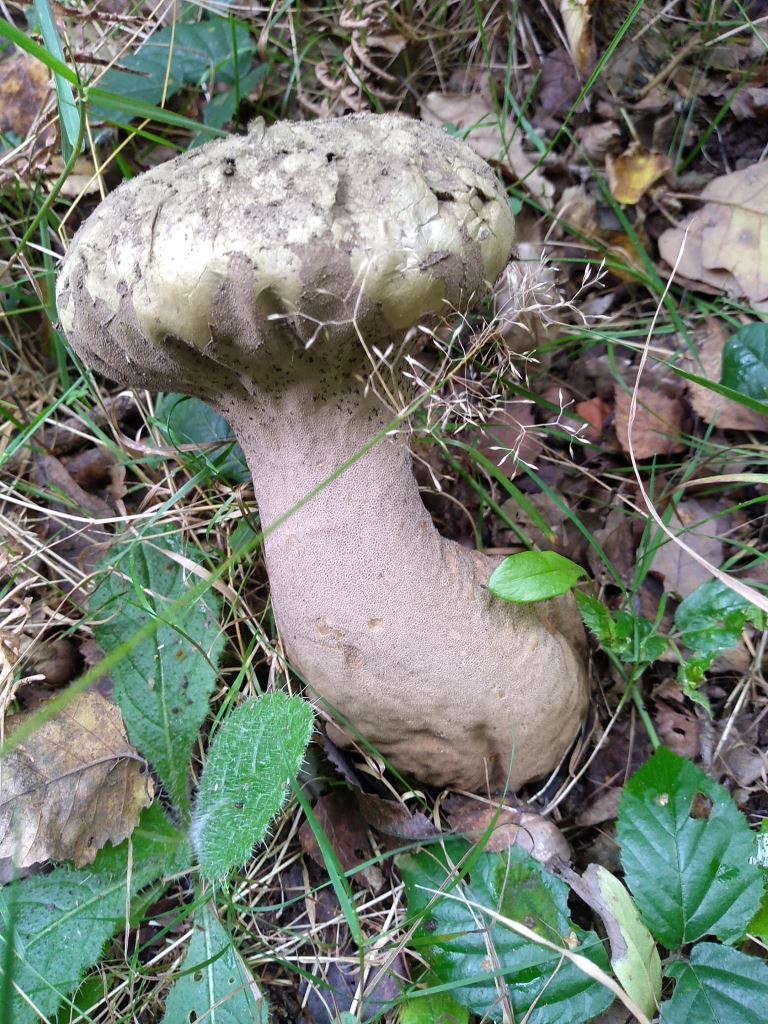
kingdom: Fungi
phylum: Basidiomycota
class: Agaricomycetes
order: Agaricales
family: Lycoperdaceae
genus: Lycoperdon
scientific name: Lycoperdon excipuliforme
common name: Pestle puffball
